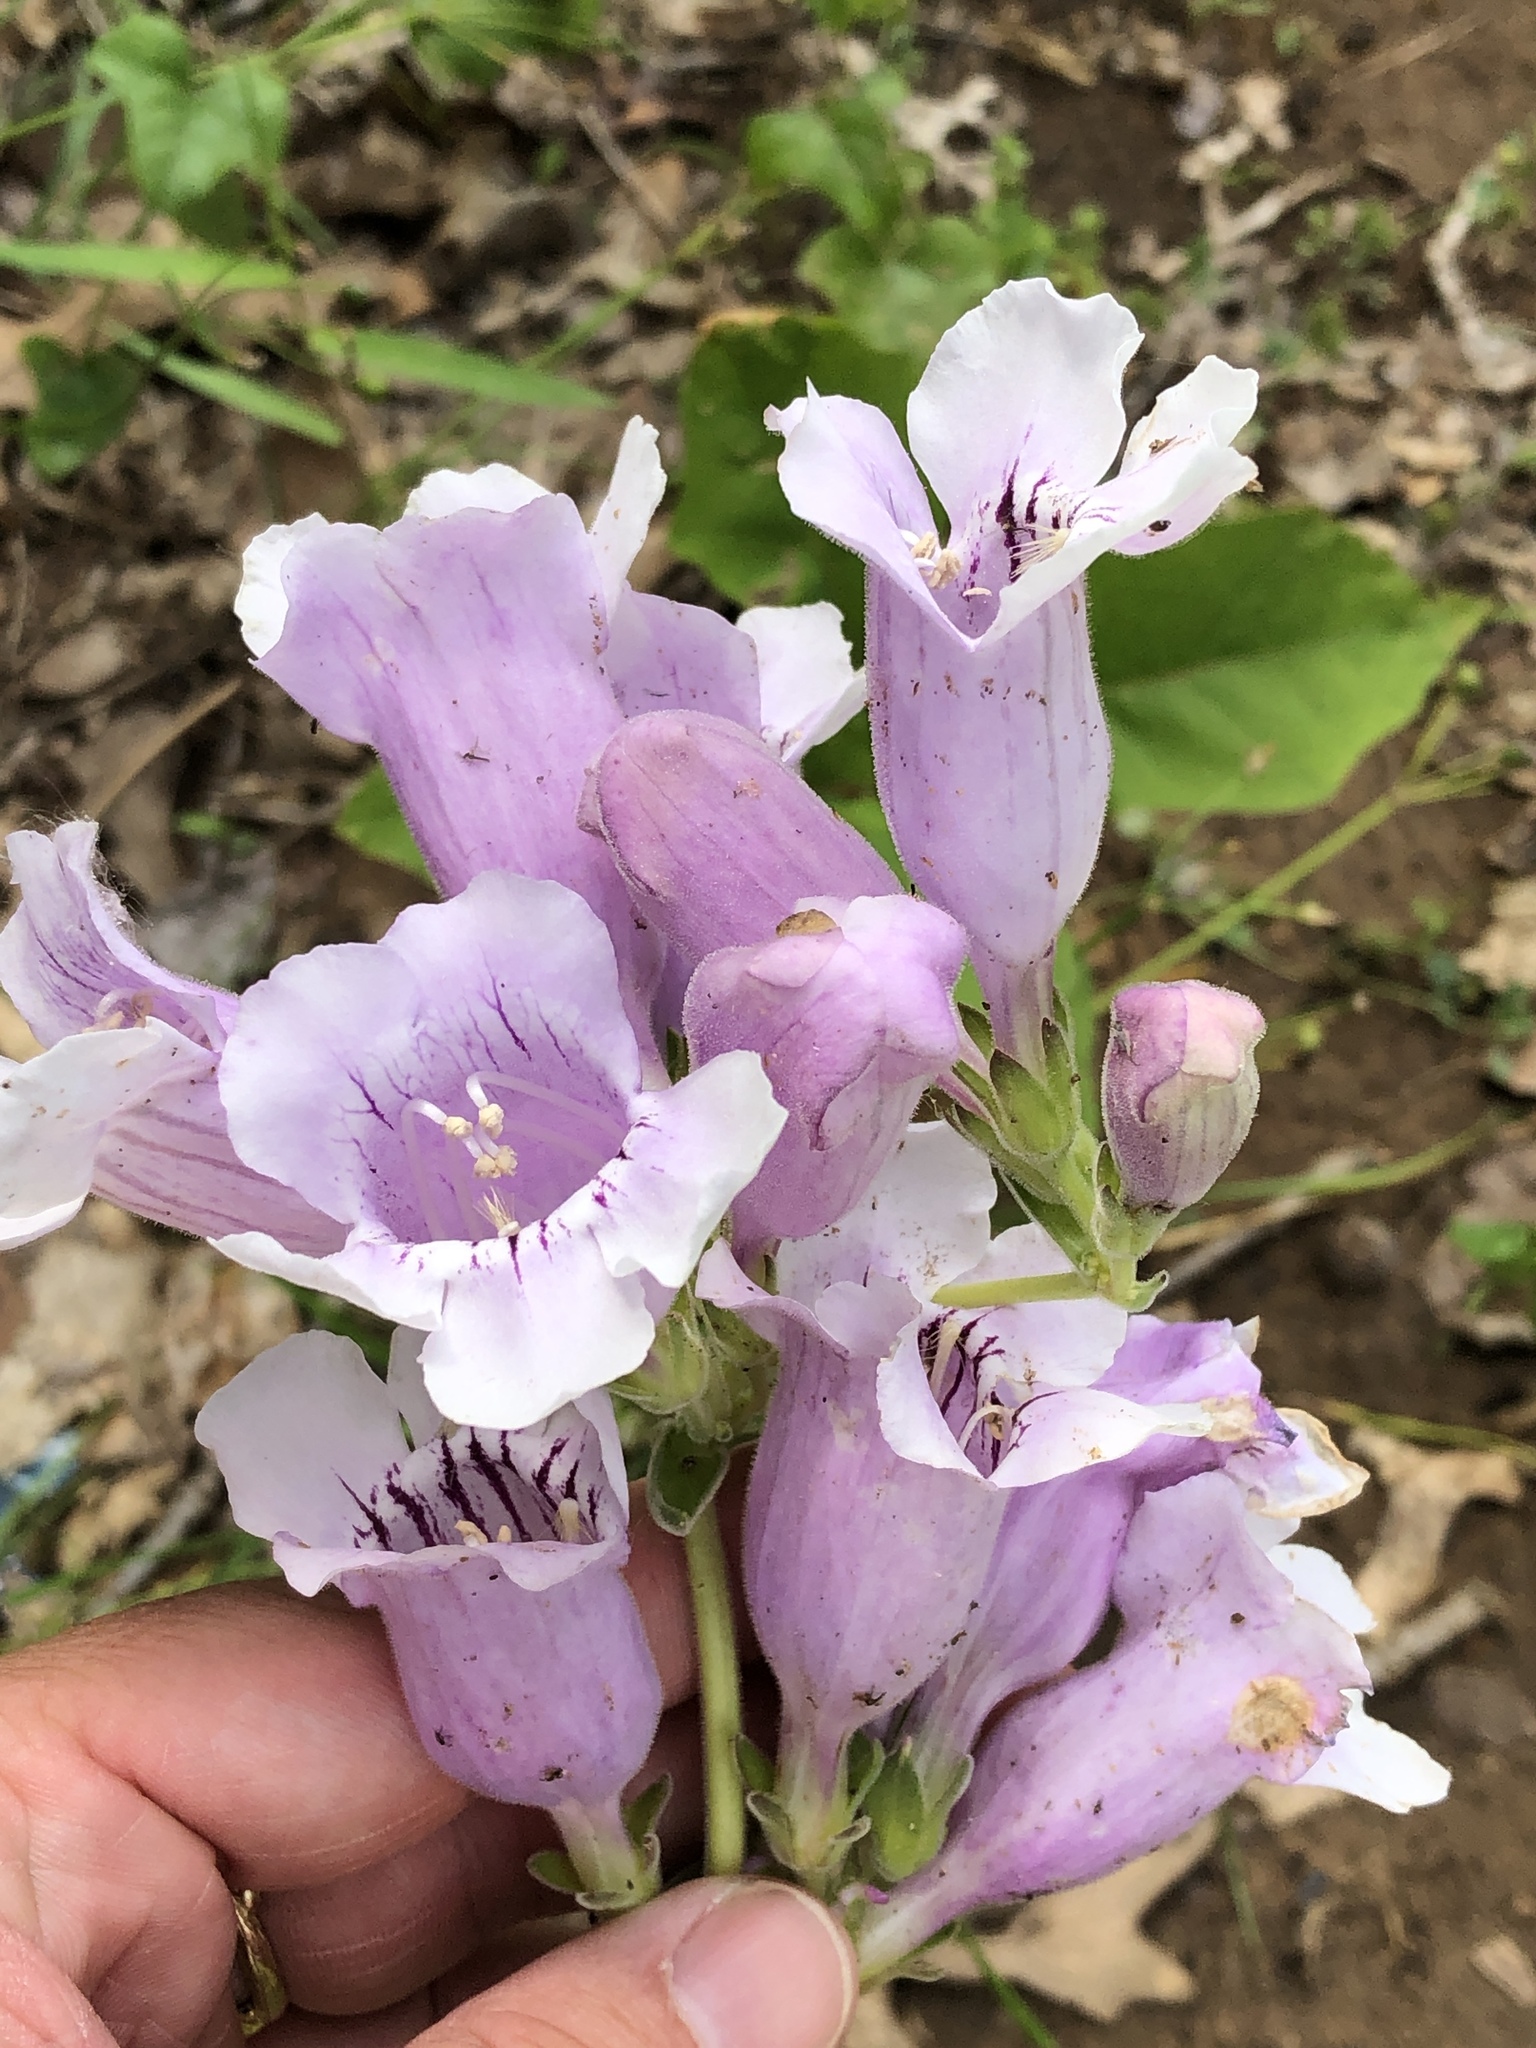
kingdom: Plantae
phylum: Tracheophyta
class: Magnoliopsida
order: Lamiales
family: Plantaginaceae
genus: Penstemon
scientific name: Penstemon cobaea
